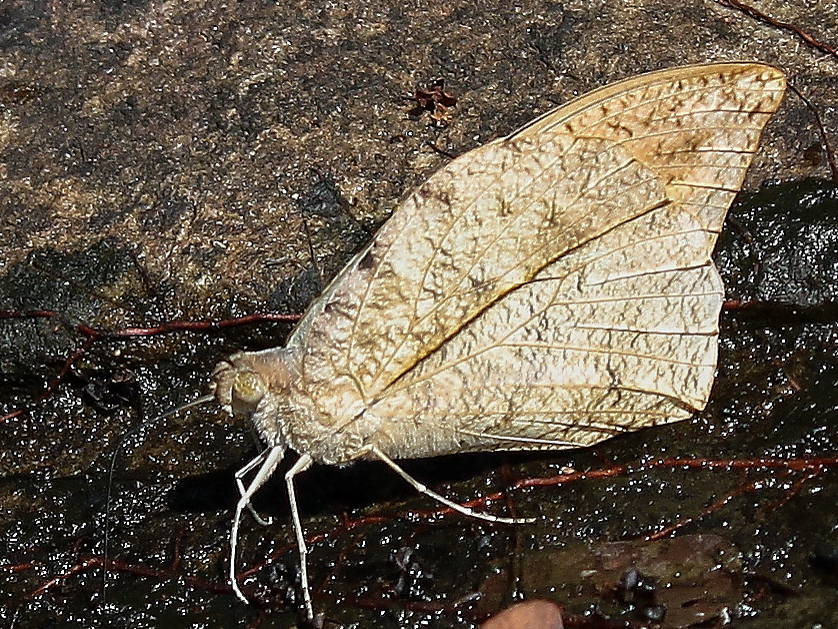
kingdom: Animalia
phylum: Arthropoda
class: Insecta
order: Lepidoptera
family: Pieridae
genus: Hebomoia
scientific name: Hebomoia glaucippe
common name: Great orange tip
